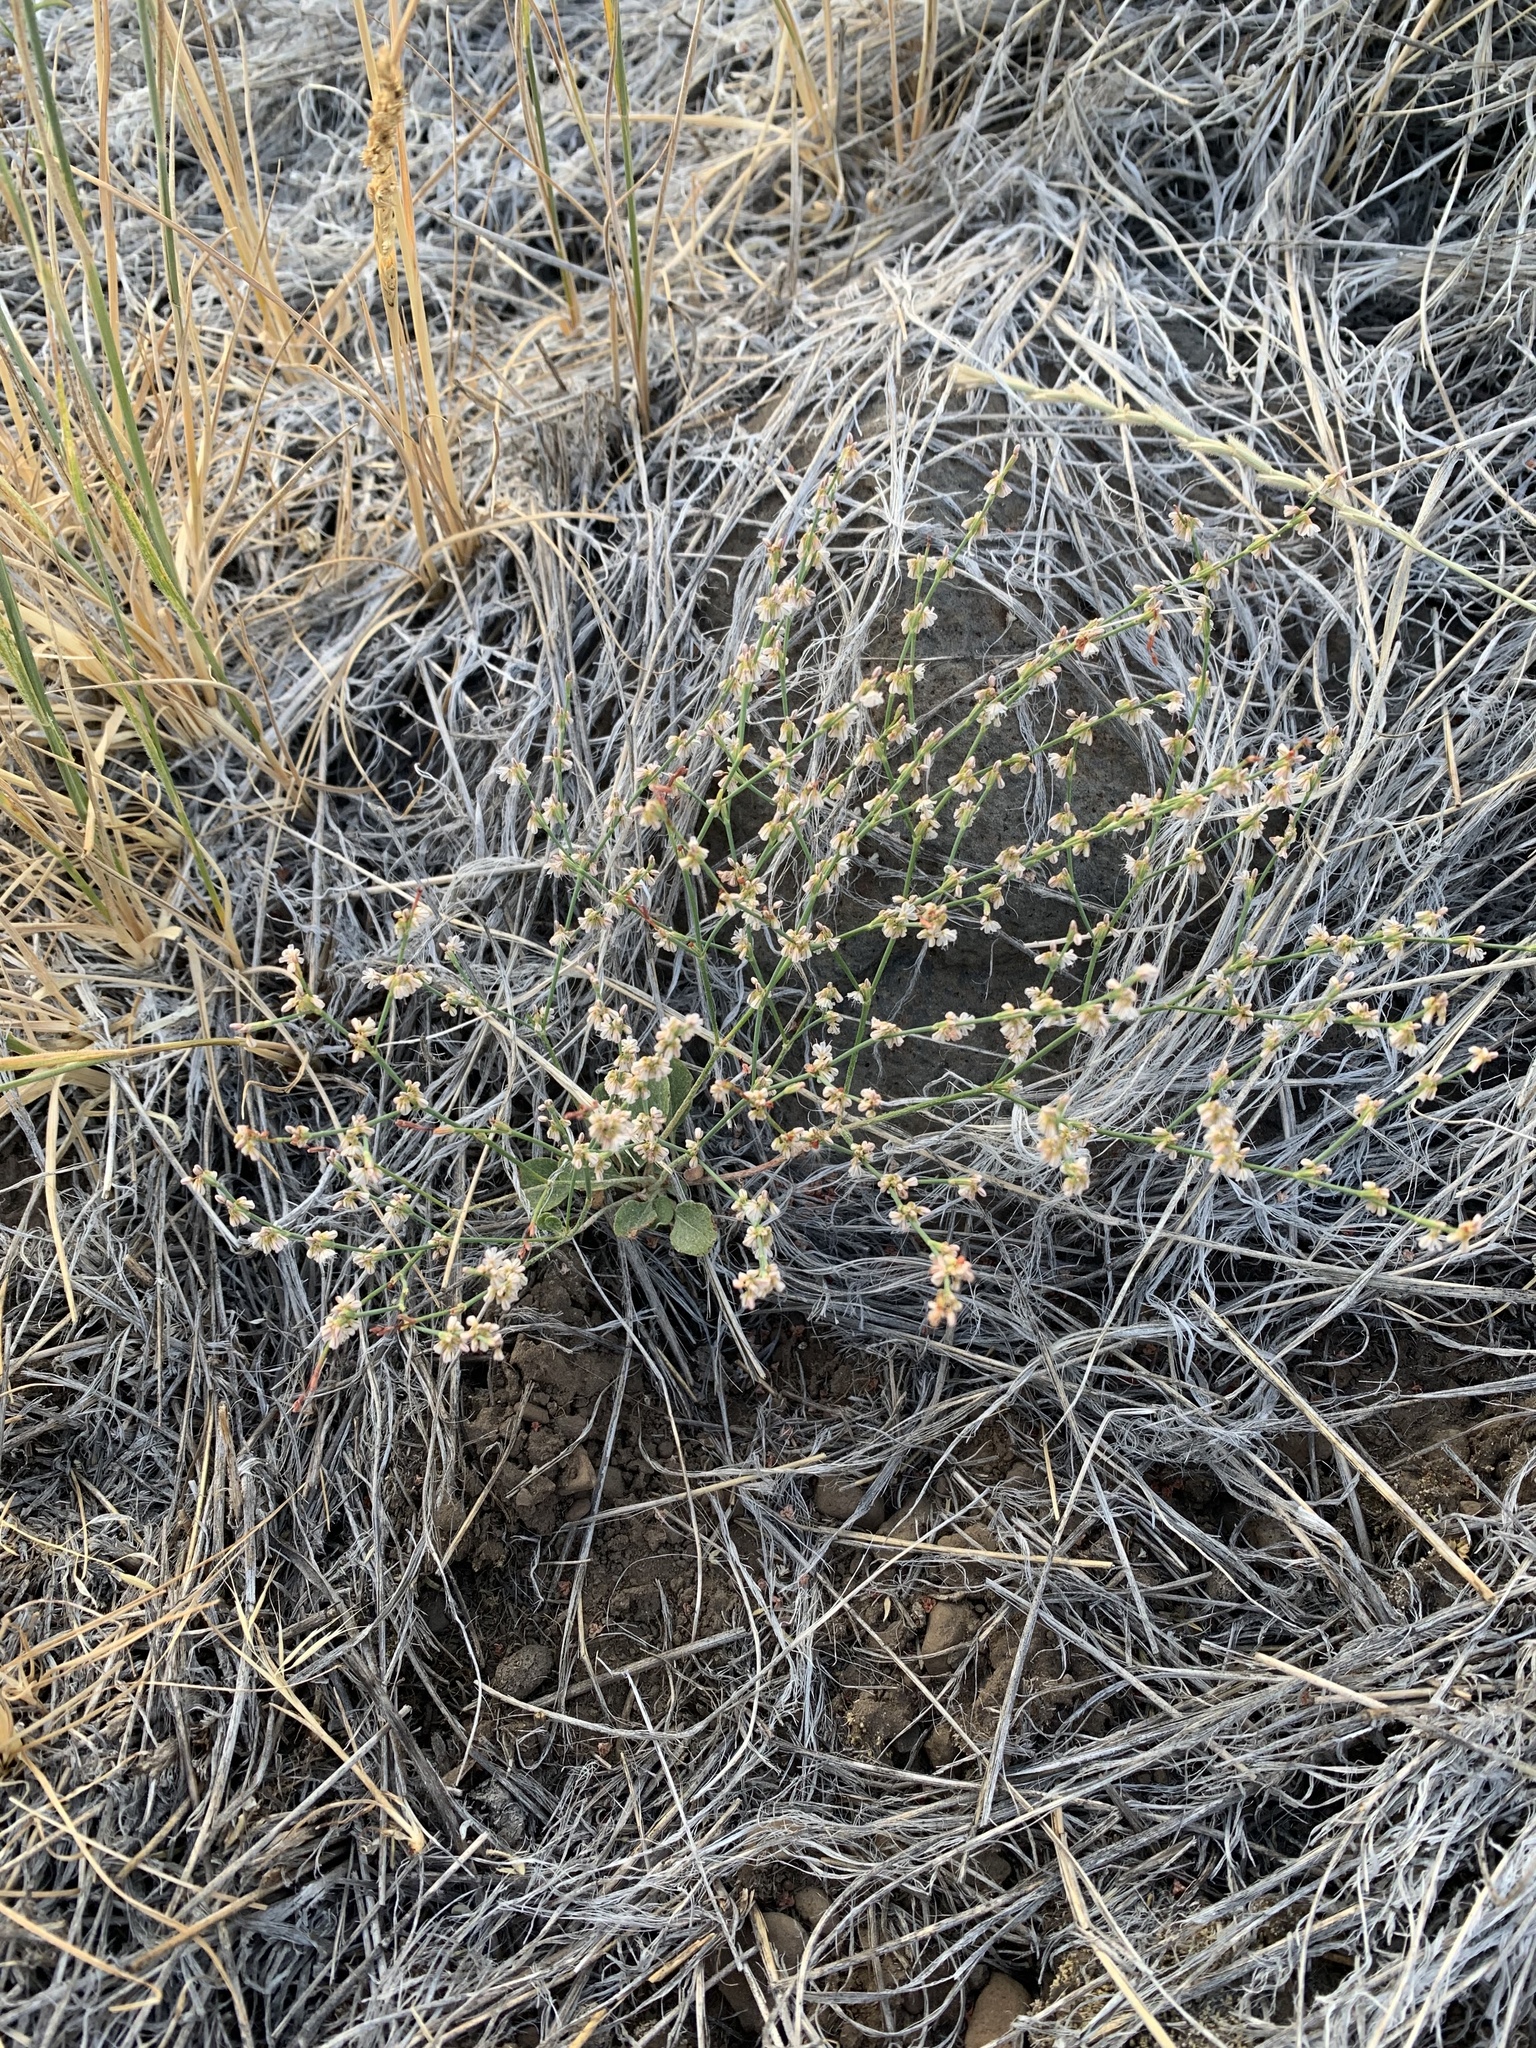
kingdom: Plantae
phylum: Tracheophyta
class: Magnoliopsida
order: Caryophyllales
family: Polygonaceae
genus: Eriogonum
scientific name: Eriogonum vimineum
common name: Wicker buckwheat
